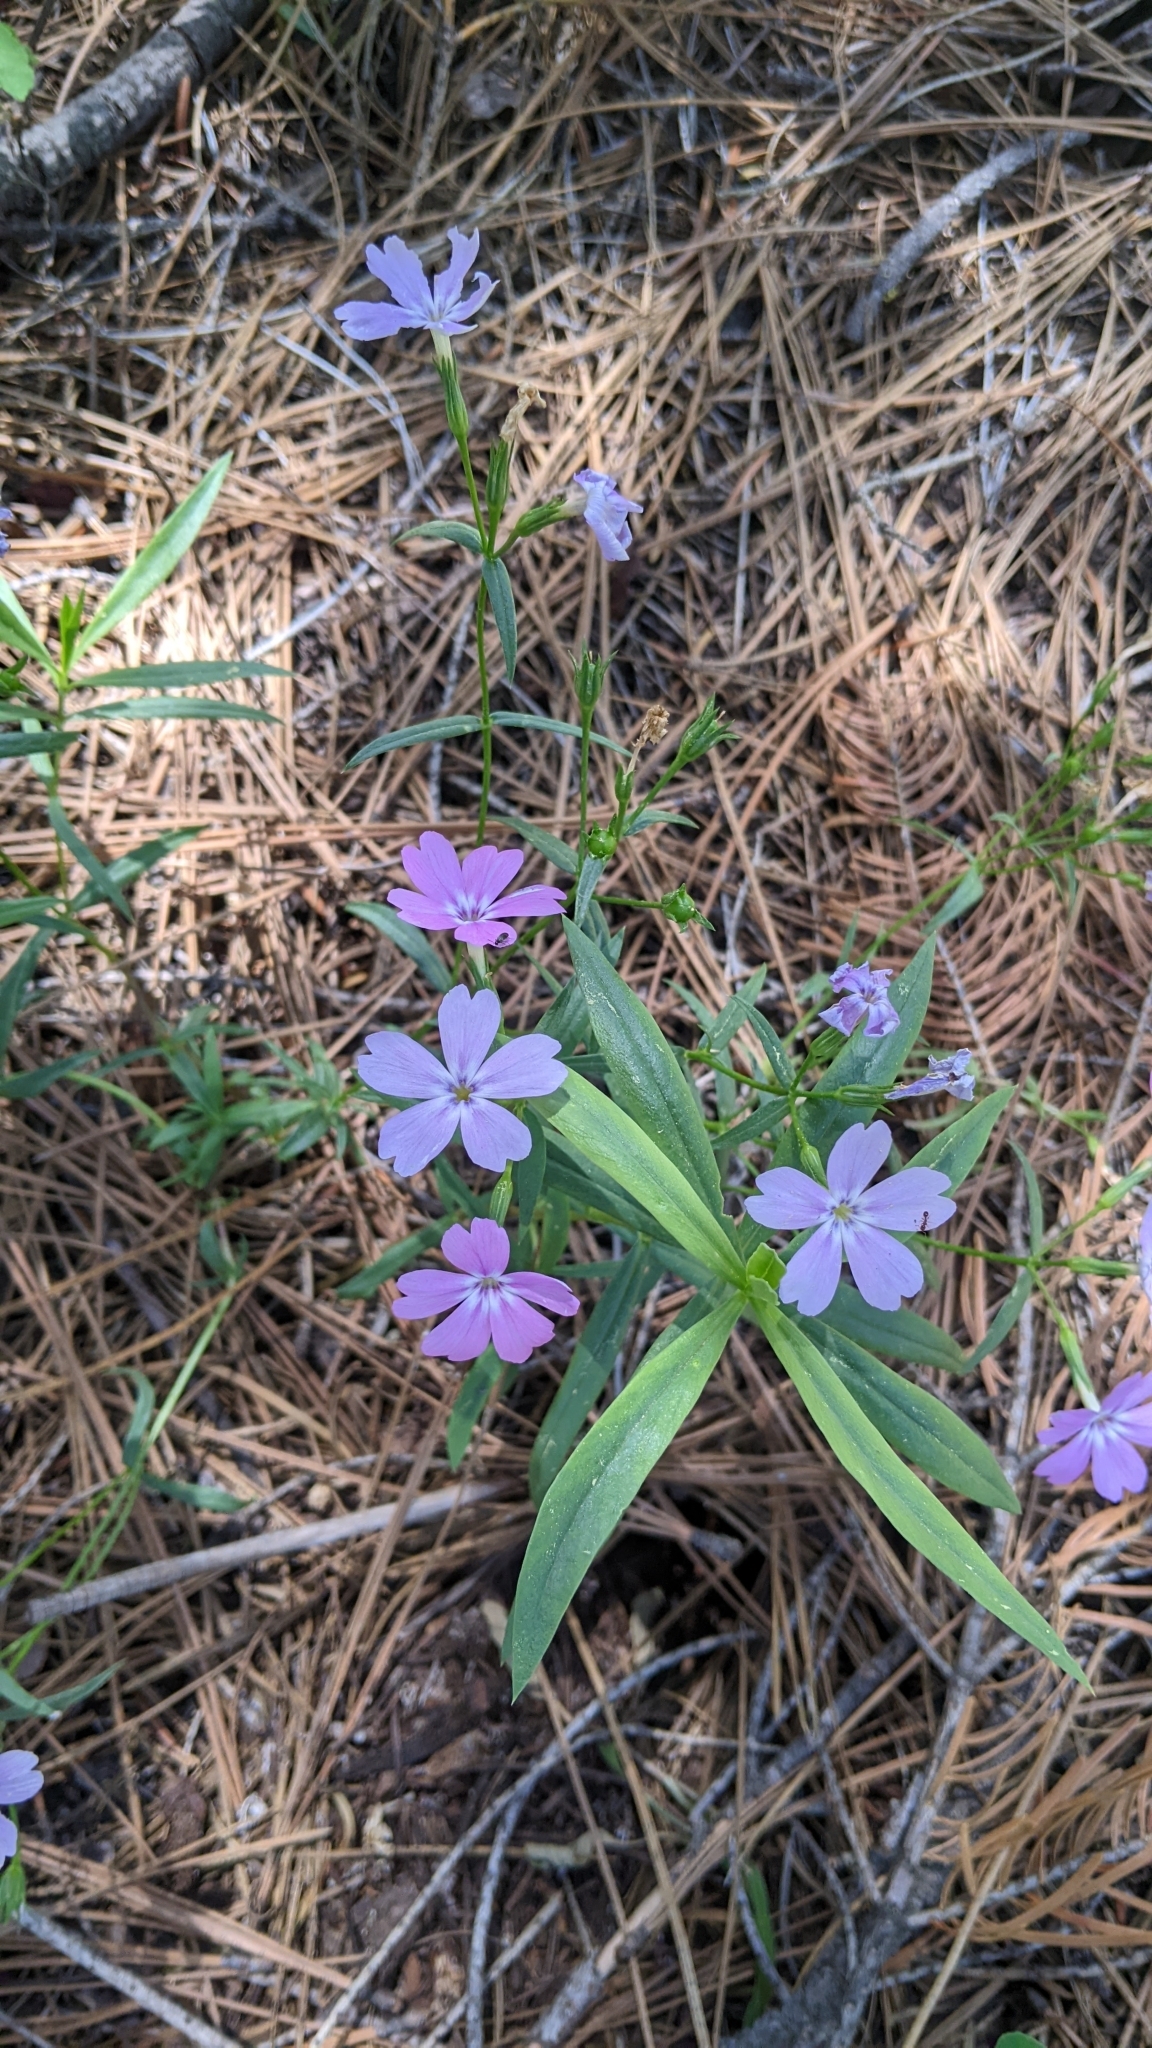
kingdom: Plantae
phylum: Tracheophyta
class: Magnoliopsida
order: Ericales
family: Polemoniaceae
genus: Phlox
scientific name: Phlox speciosa
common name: Bush phlox
